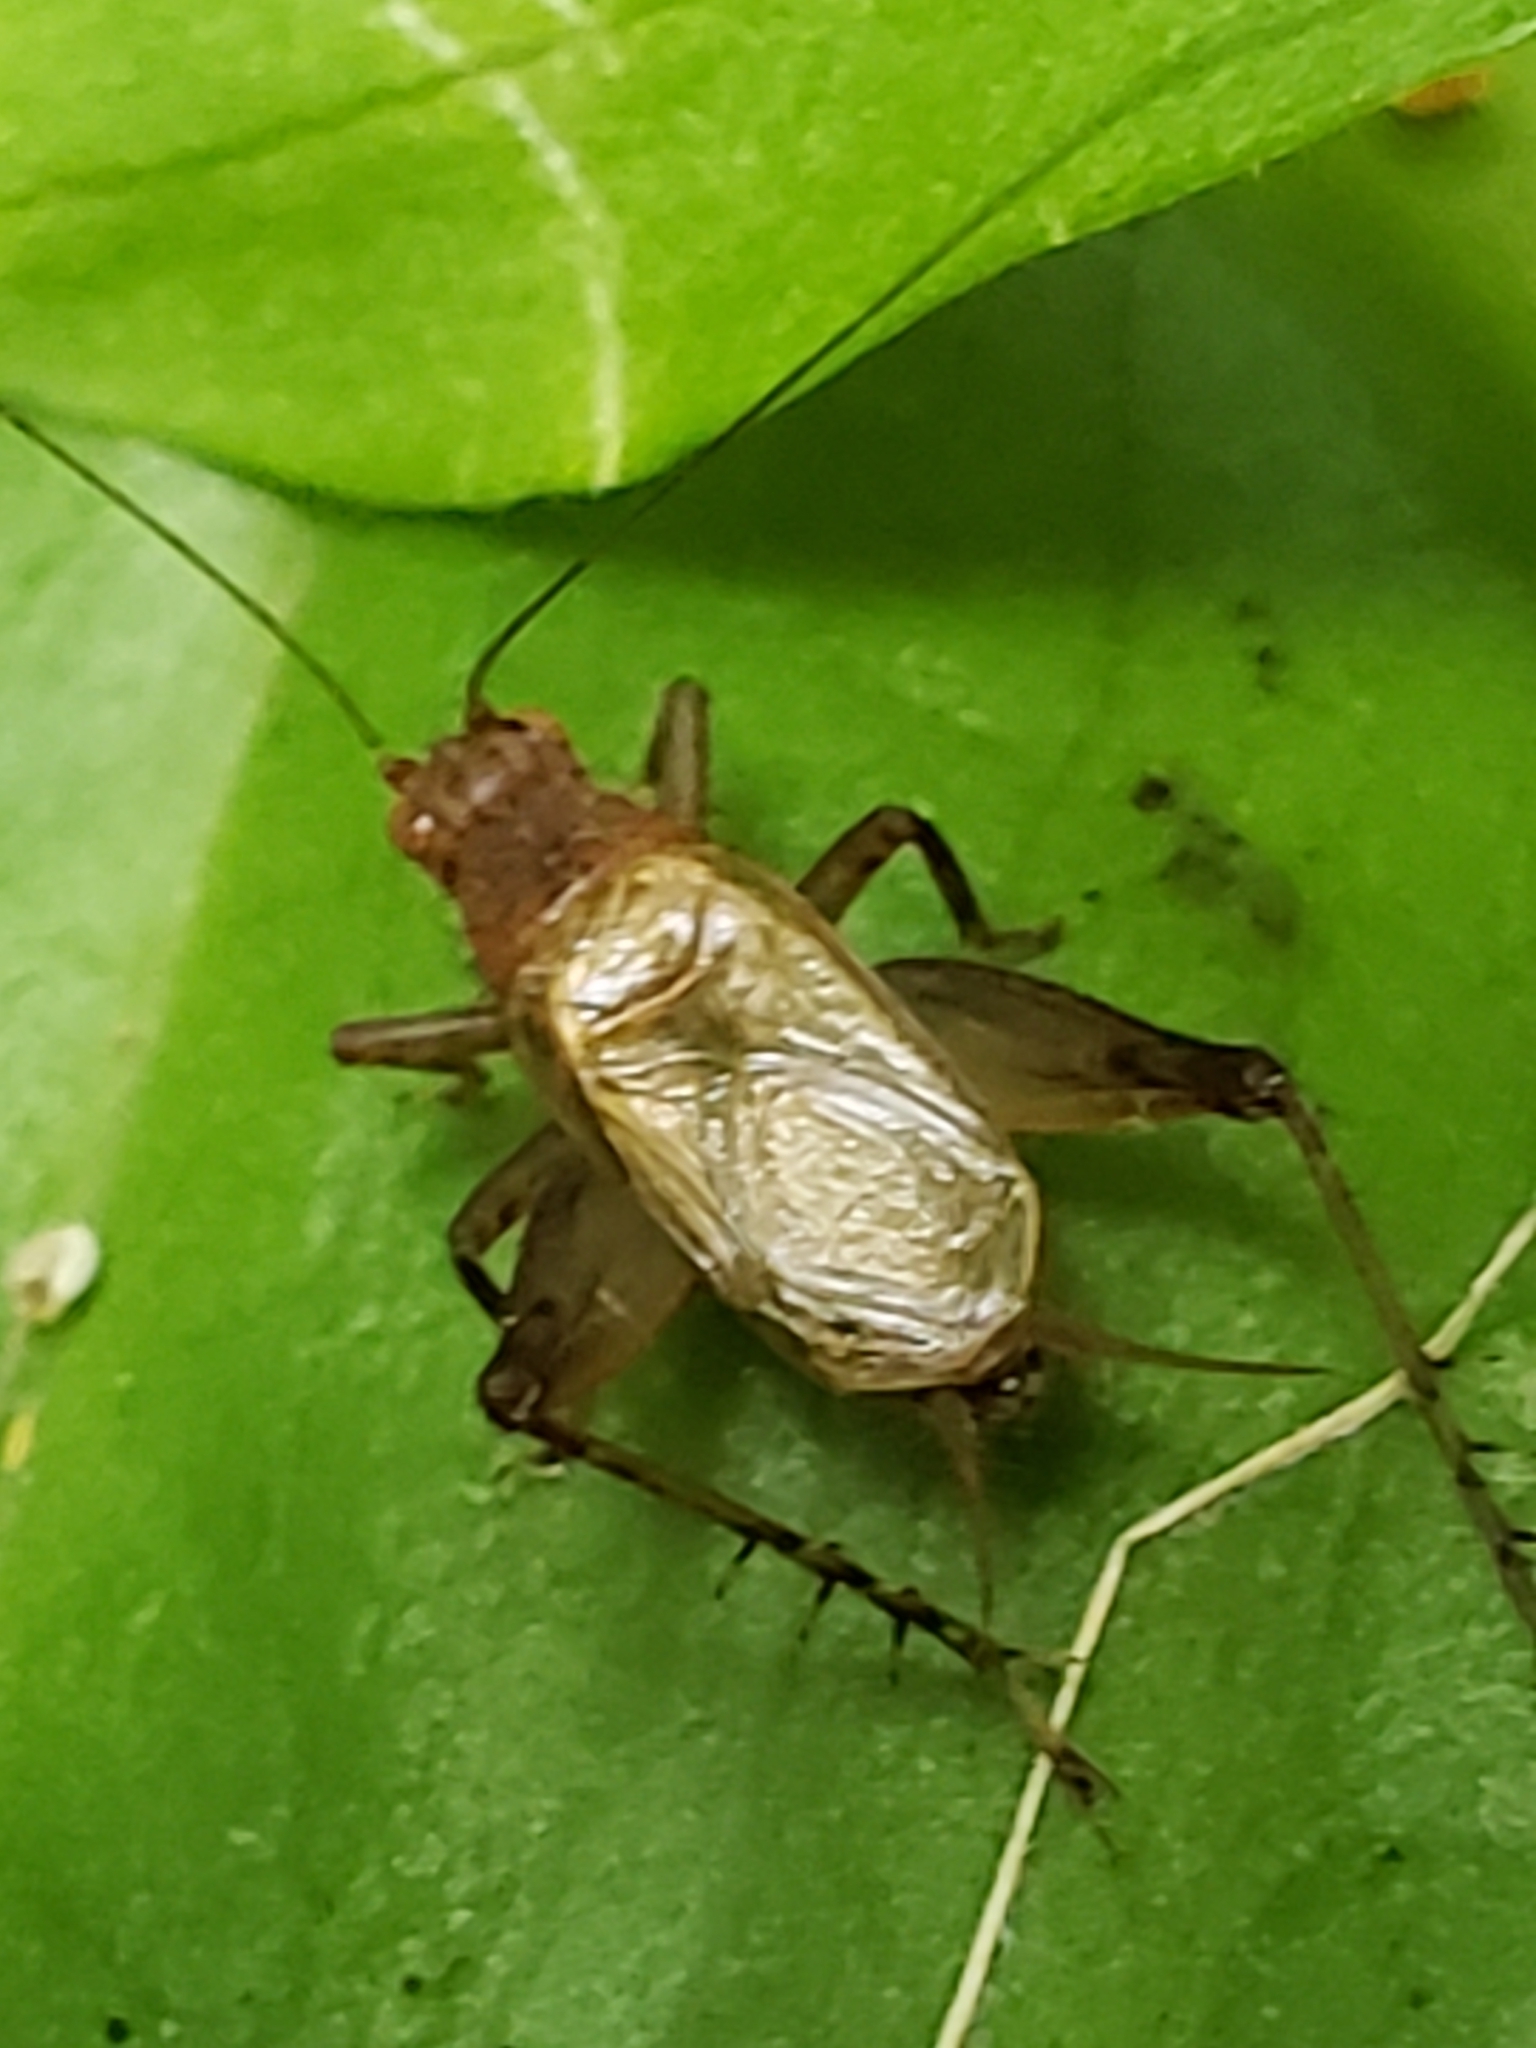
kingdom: Animalia
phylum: Arthropoda
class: Insecta
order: Orthoptera
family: Trigonidiidae
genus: Anaxipha
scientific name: Anaxipha vernalis
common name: Spring trig
